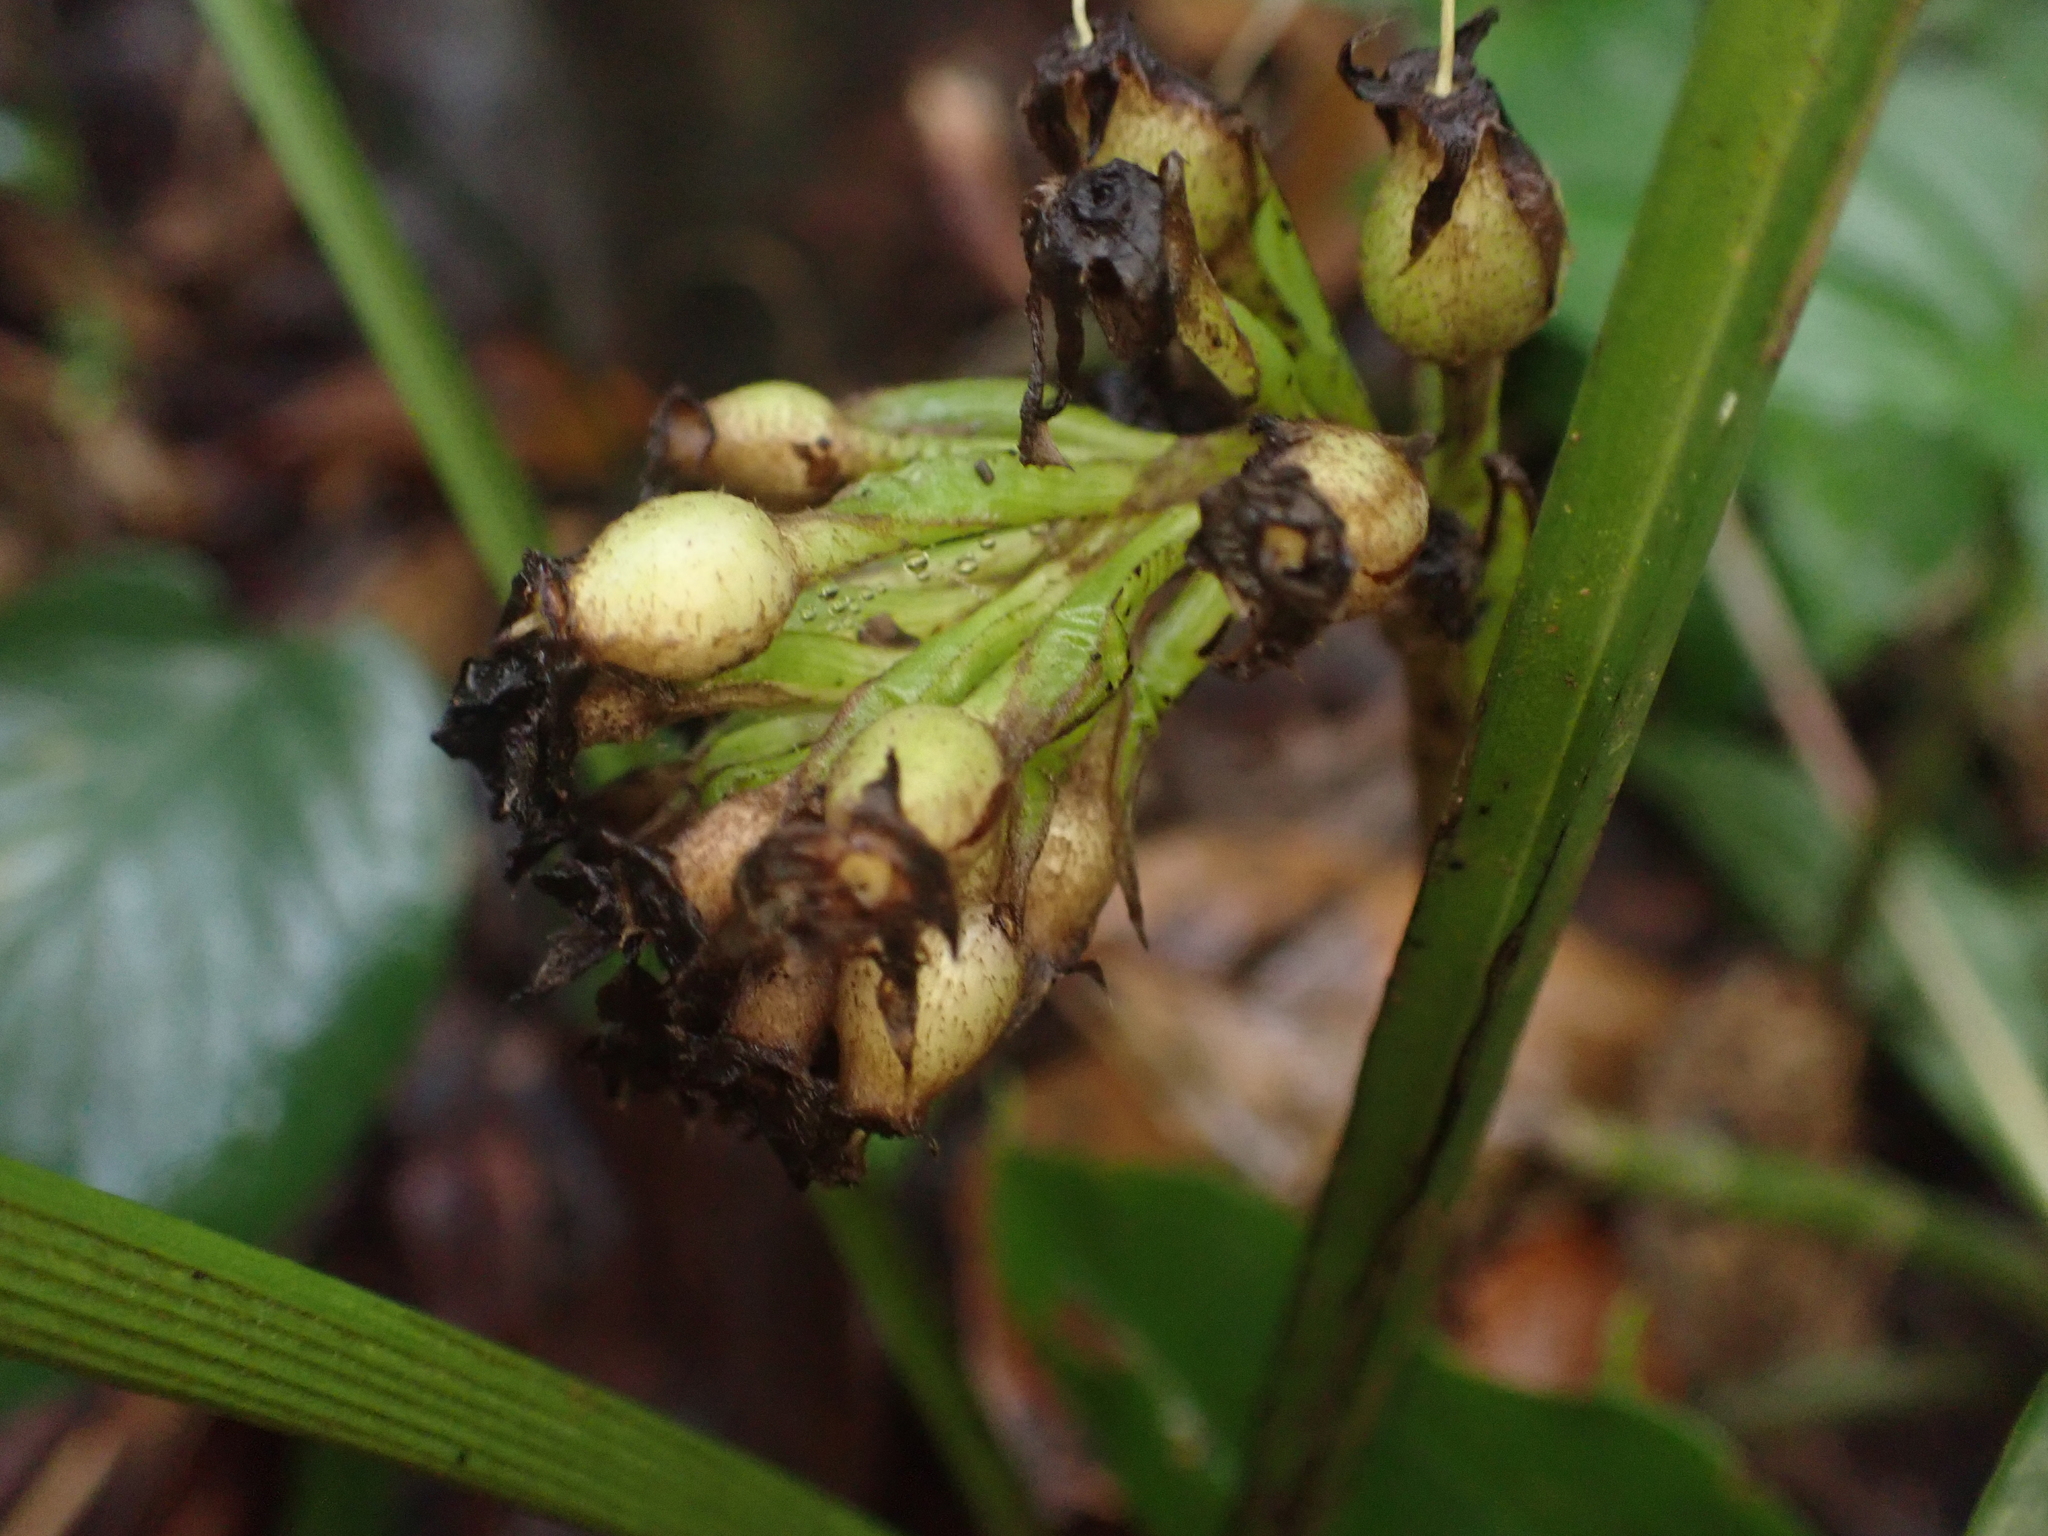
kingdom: Plantae
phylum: Tracheophyta
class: Liliopsida
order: Asparagales
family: Hypoxidaceae
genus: Curculigo
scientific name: Curculigo capitulata
